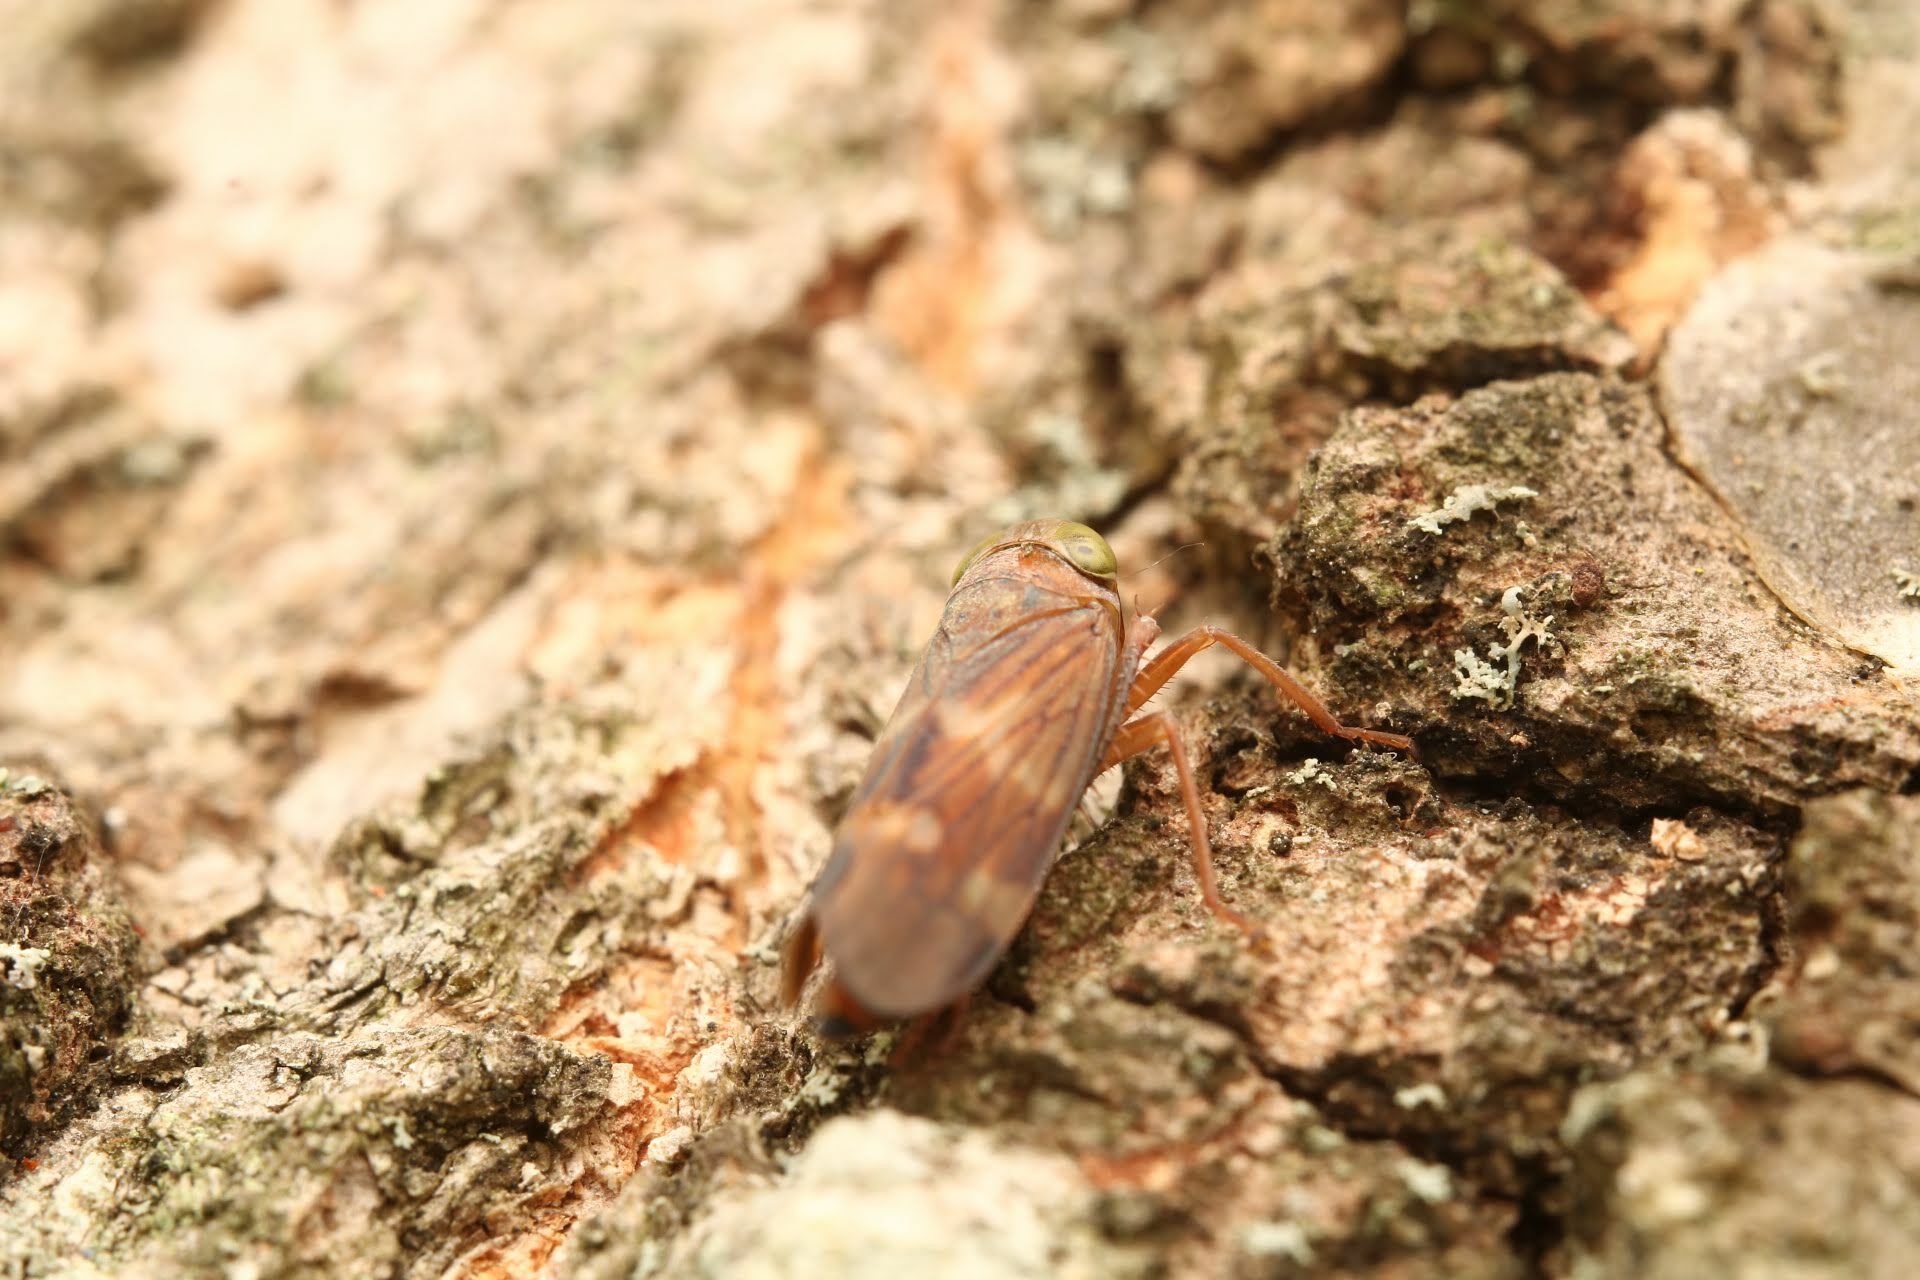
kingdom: Animalia
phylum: Arthropoda
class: Insecta
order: Hemiptera
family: Cicadellidae
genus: Jikradia
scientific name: Jikradia olitoria
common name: Coppery leafhopper
